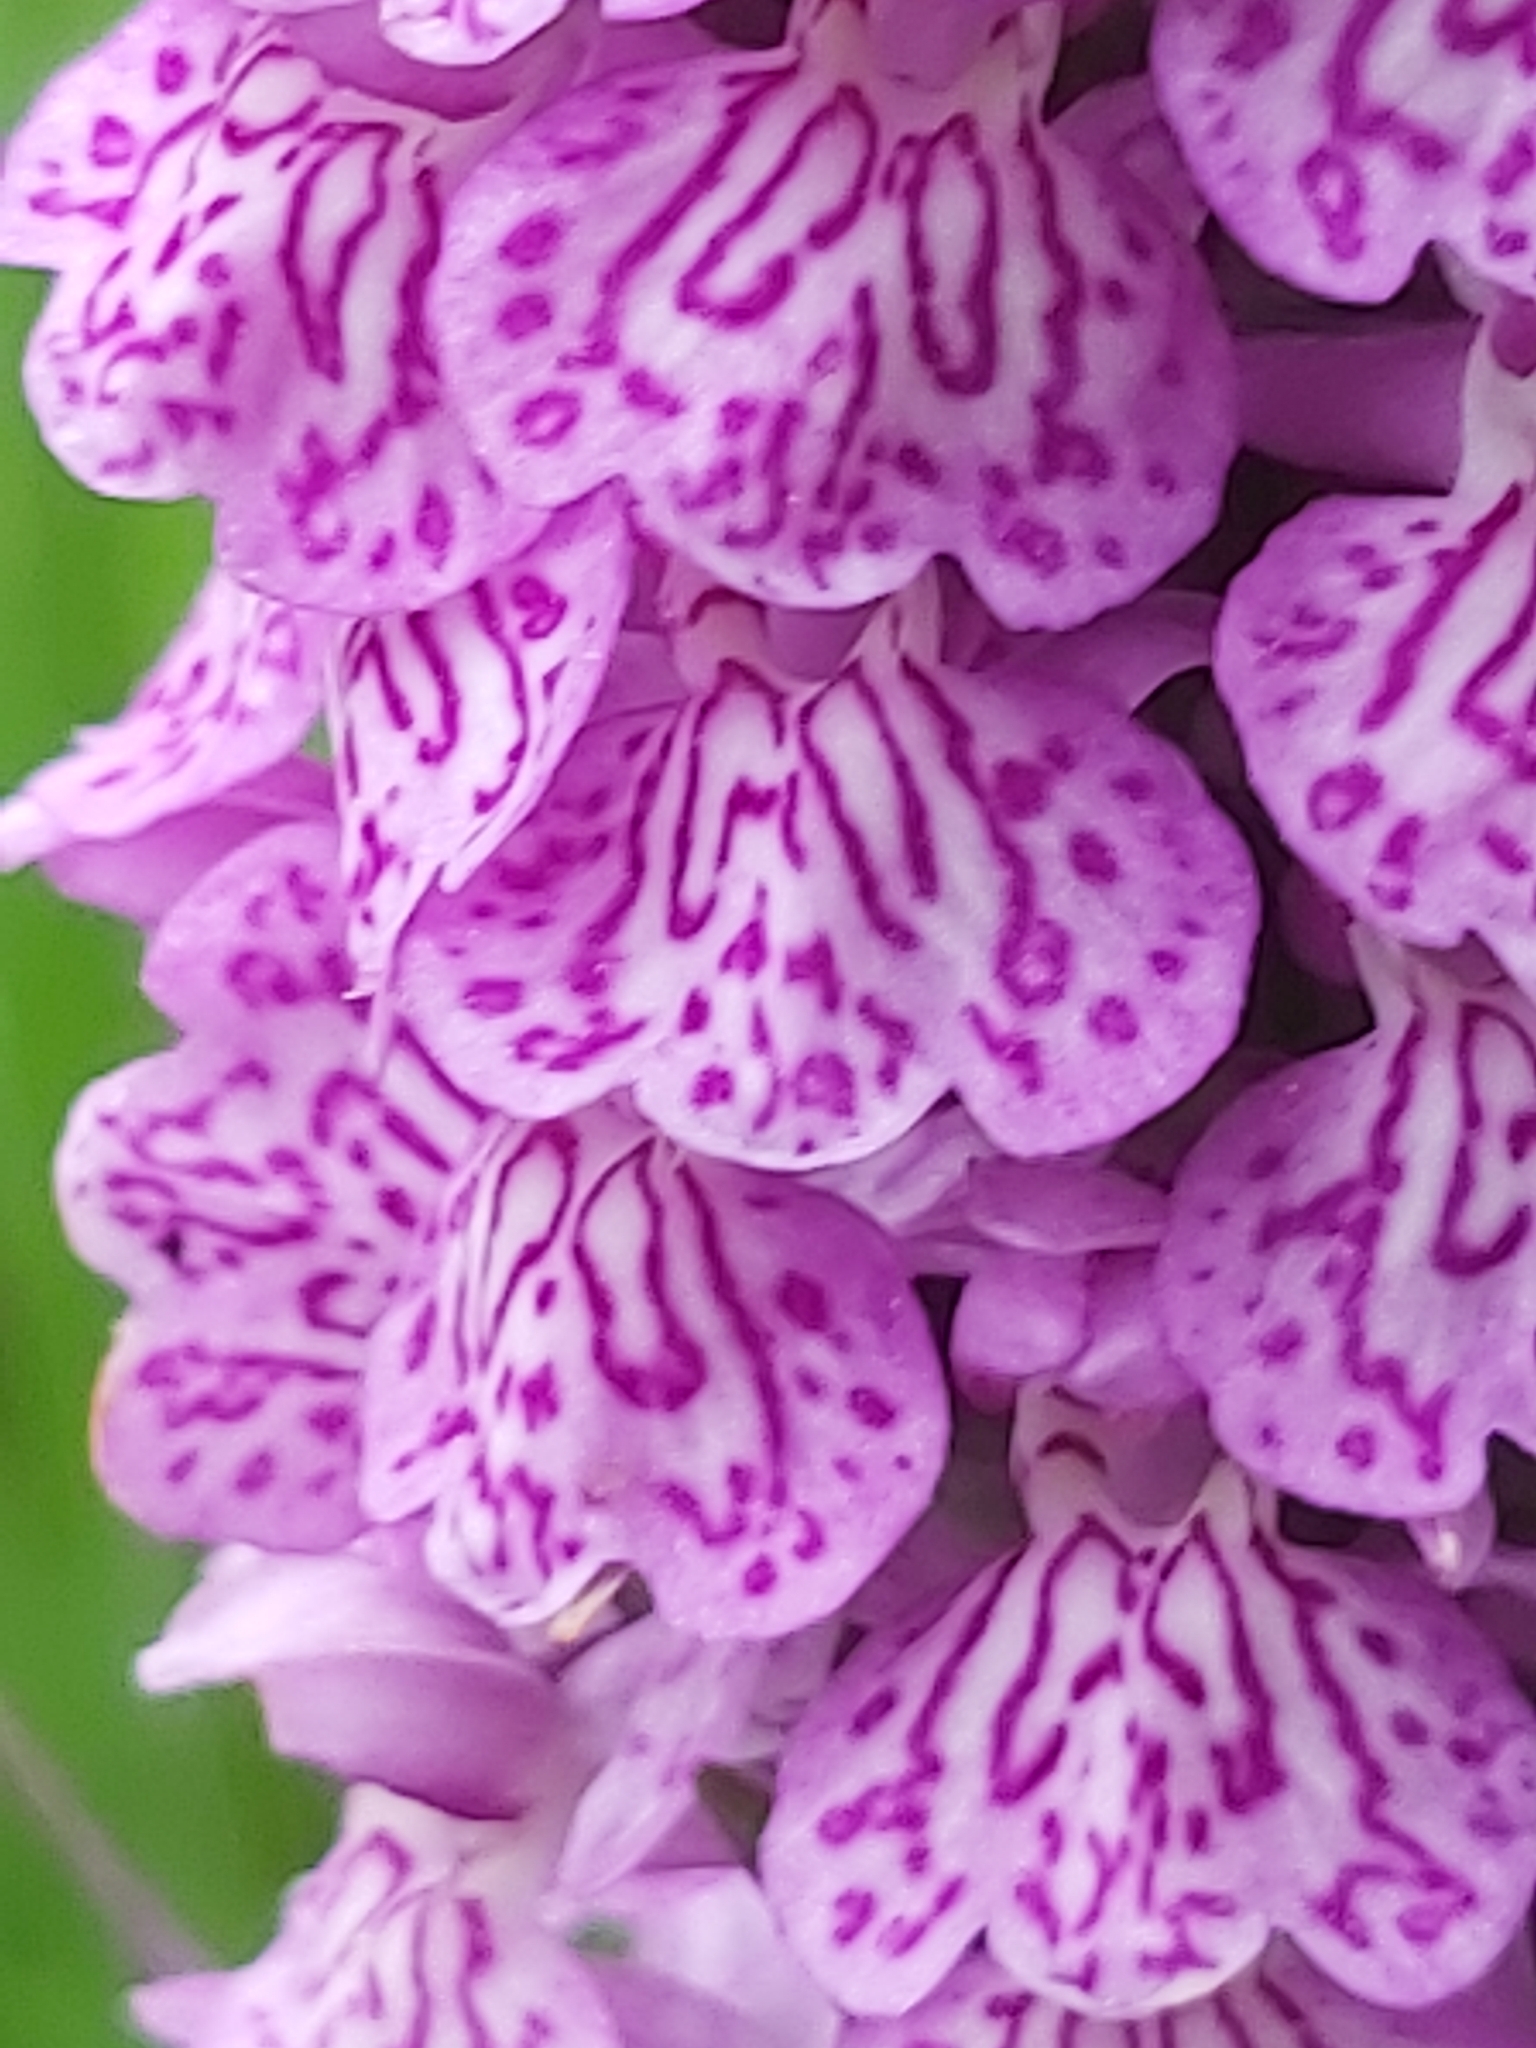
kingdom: Plantae
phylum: Tracheophyta
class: Liliopsida
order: Asparagales
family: Orchidaceae
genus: Dactylorhiza
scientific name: Dactylorhiza maculata
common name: Heath spotted-orchid
